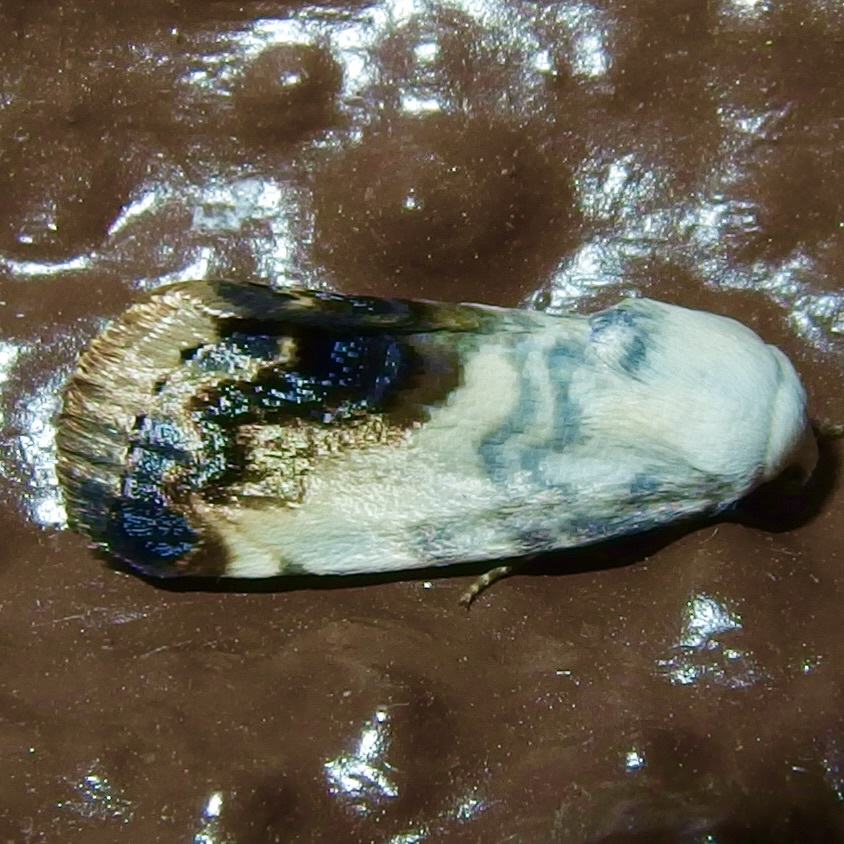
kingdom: Animalia
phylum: Arthropoda
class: Insecta
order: Lepidoptera
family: Noctuidae
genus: Acontia
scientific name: Acontia behrii
